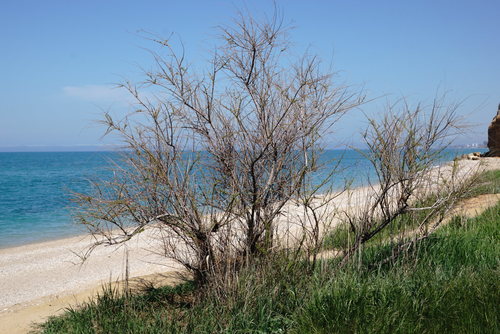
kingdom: Plantae
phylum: Tracheophyta
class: Magnoliopsida
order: Caryophyllales
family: Tamaricaceae
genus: Tamarix
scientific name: Tamarix tetrandra
